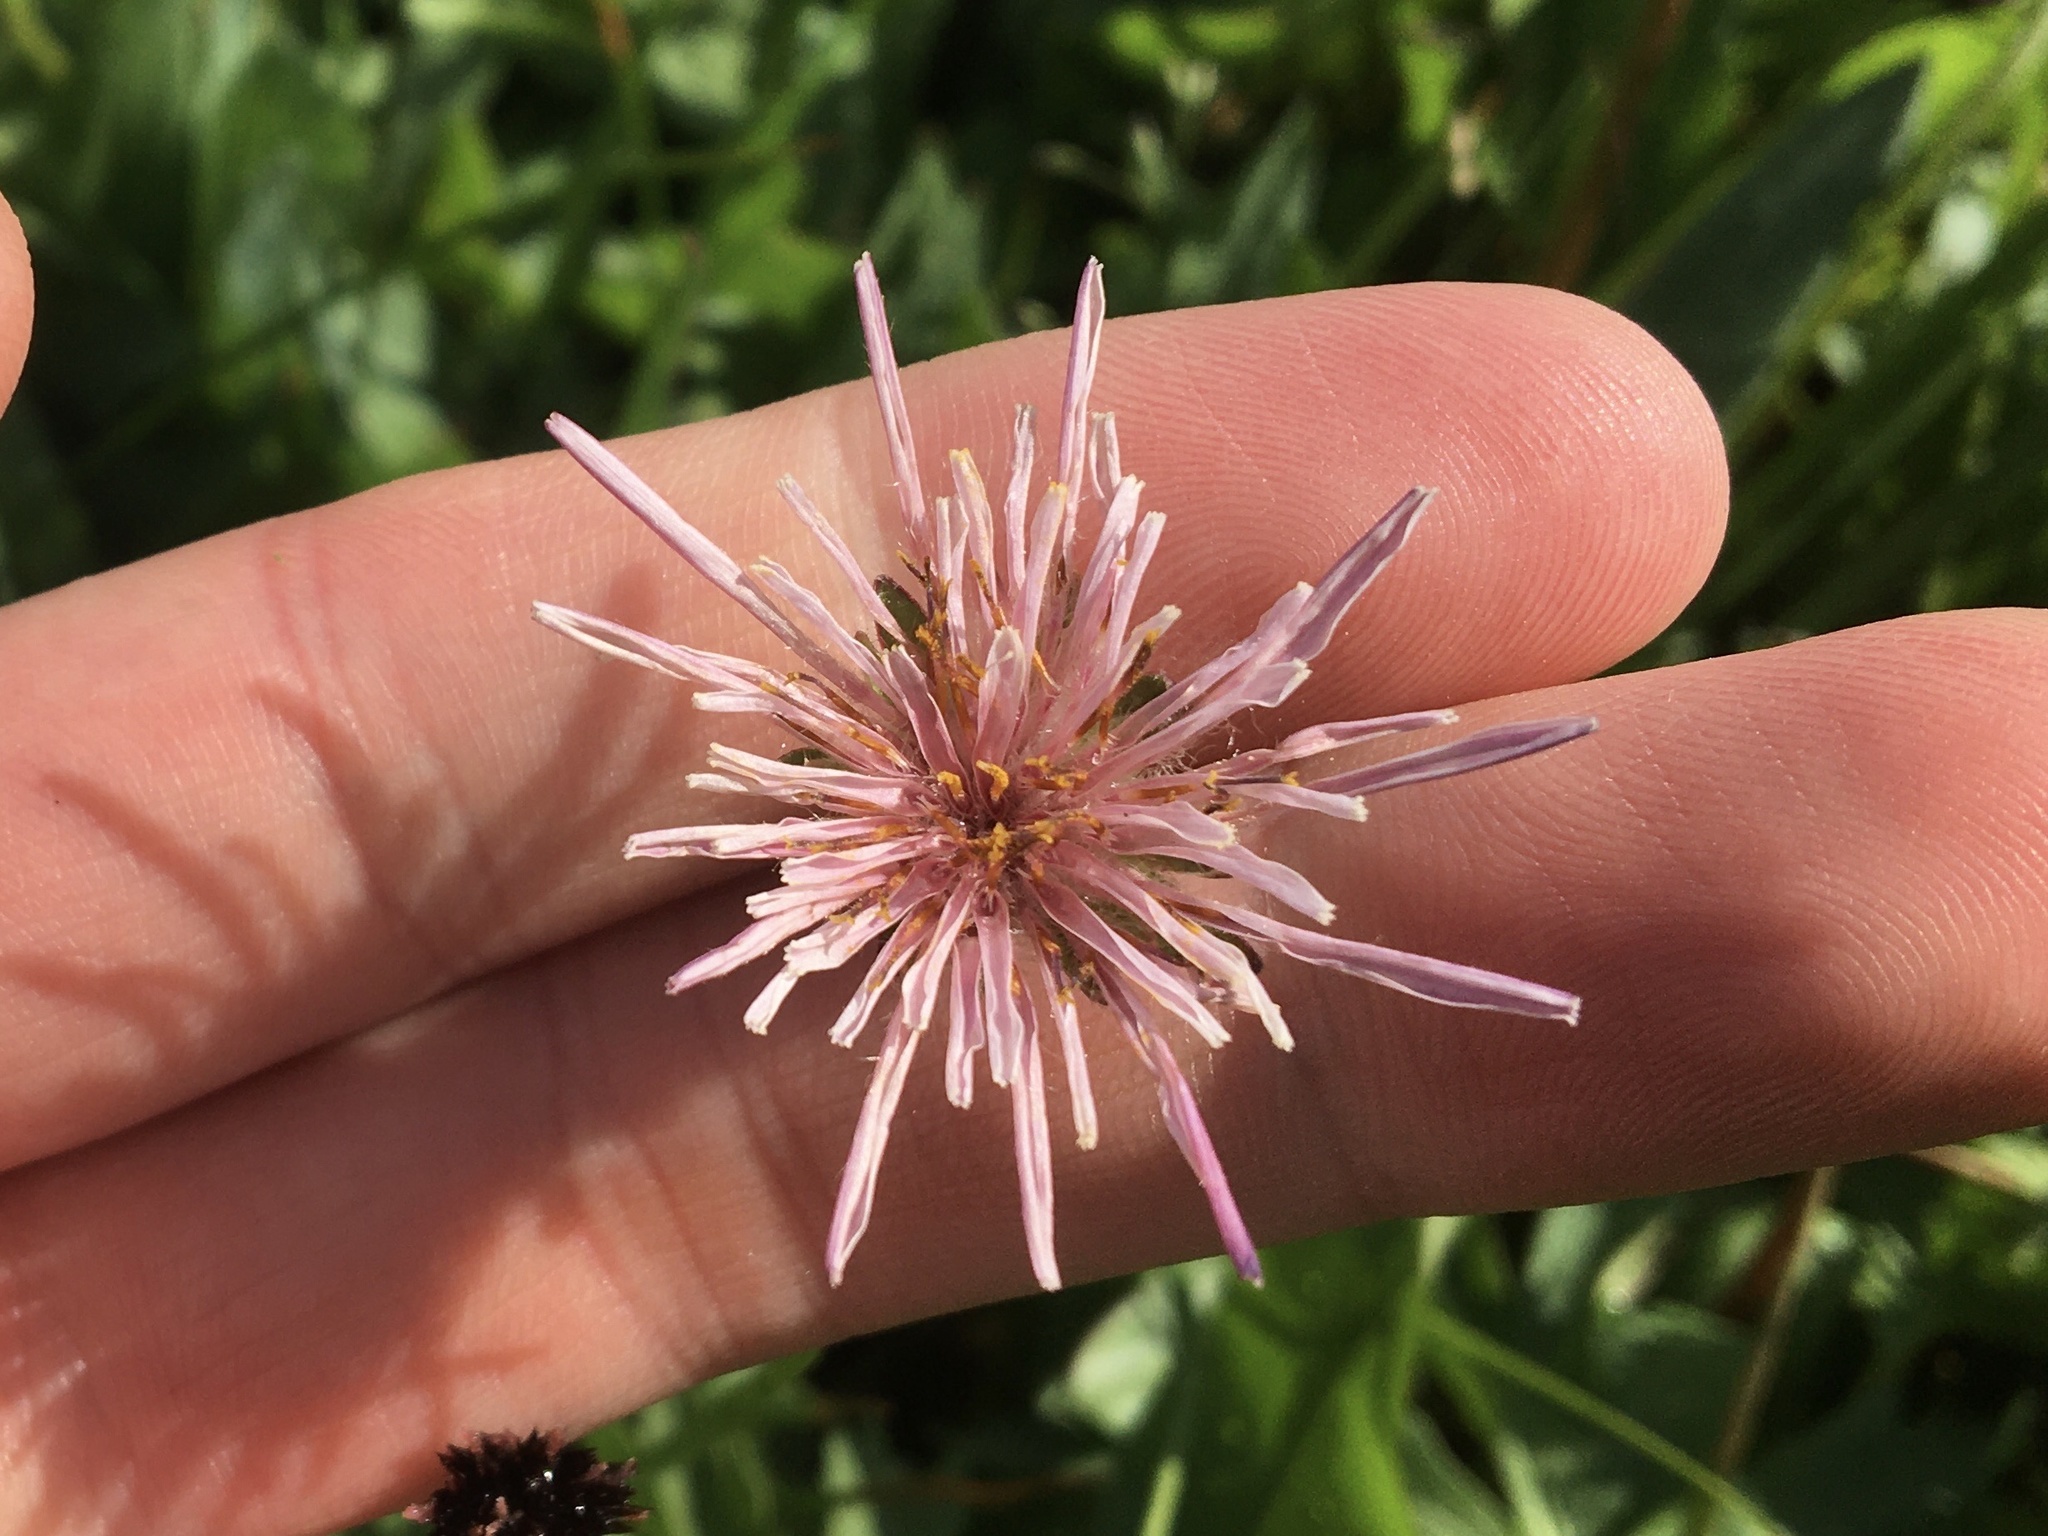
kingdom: Plantae
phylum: Tracheophyta
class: Magnoliopsida
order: Asterales
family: Asteraceae
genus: Agoseris
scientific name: Agoseris aurantiaca
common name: Mountain agoseris
